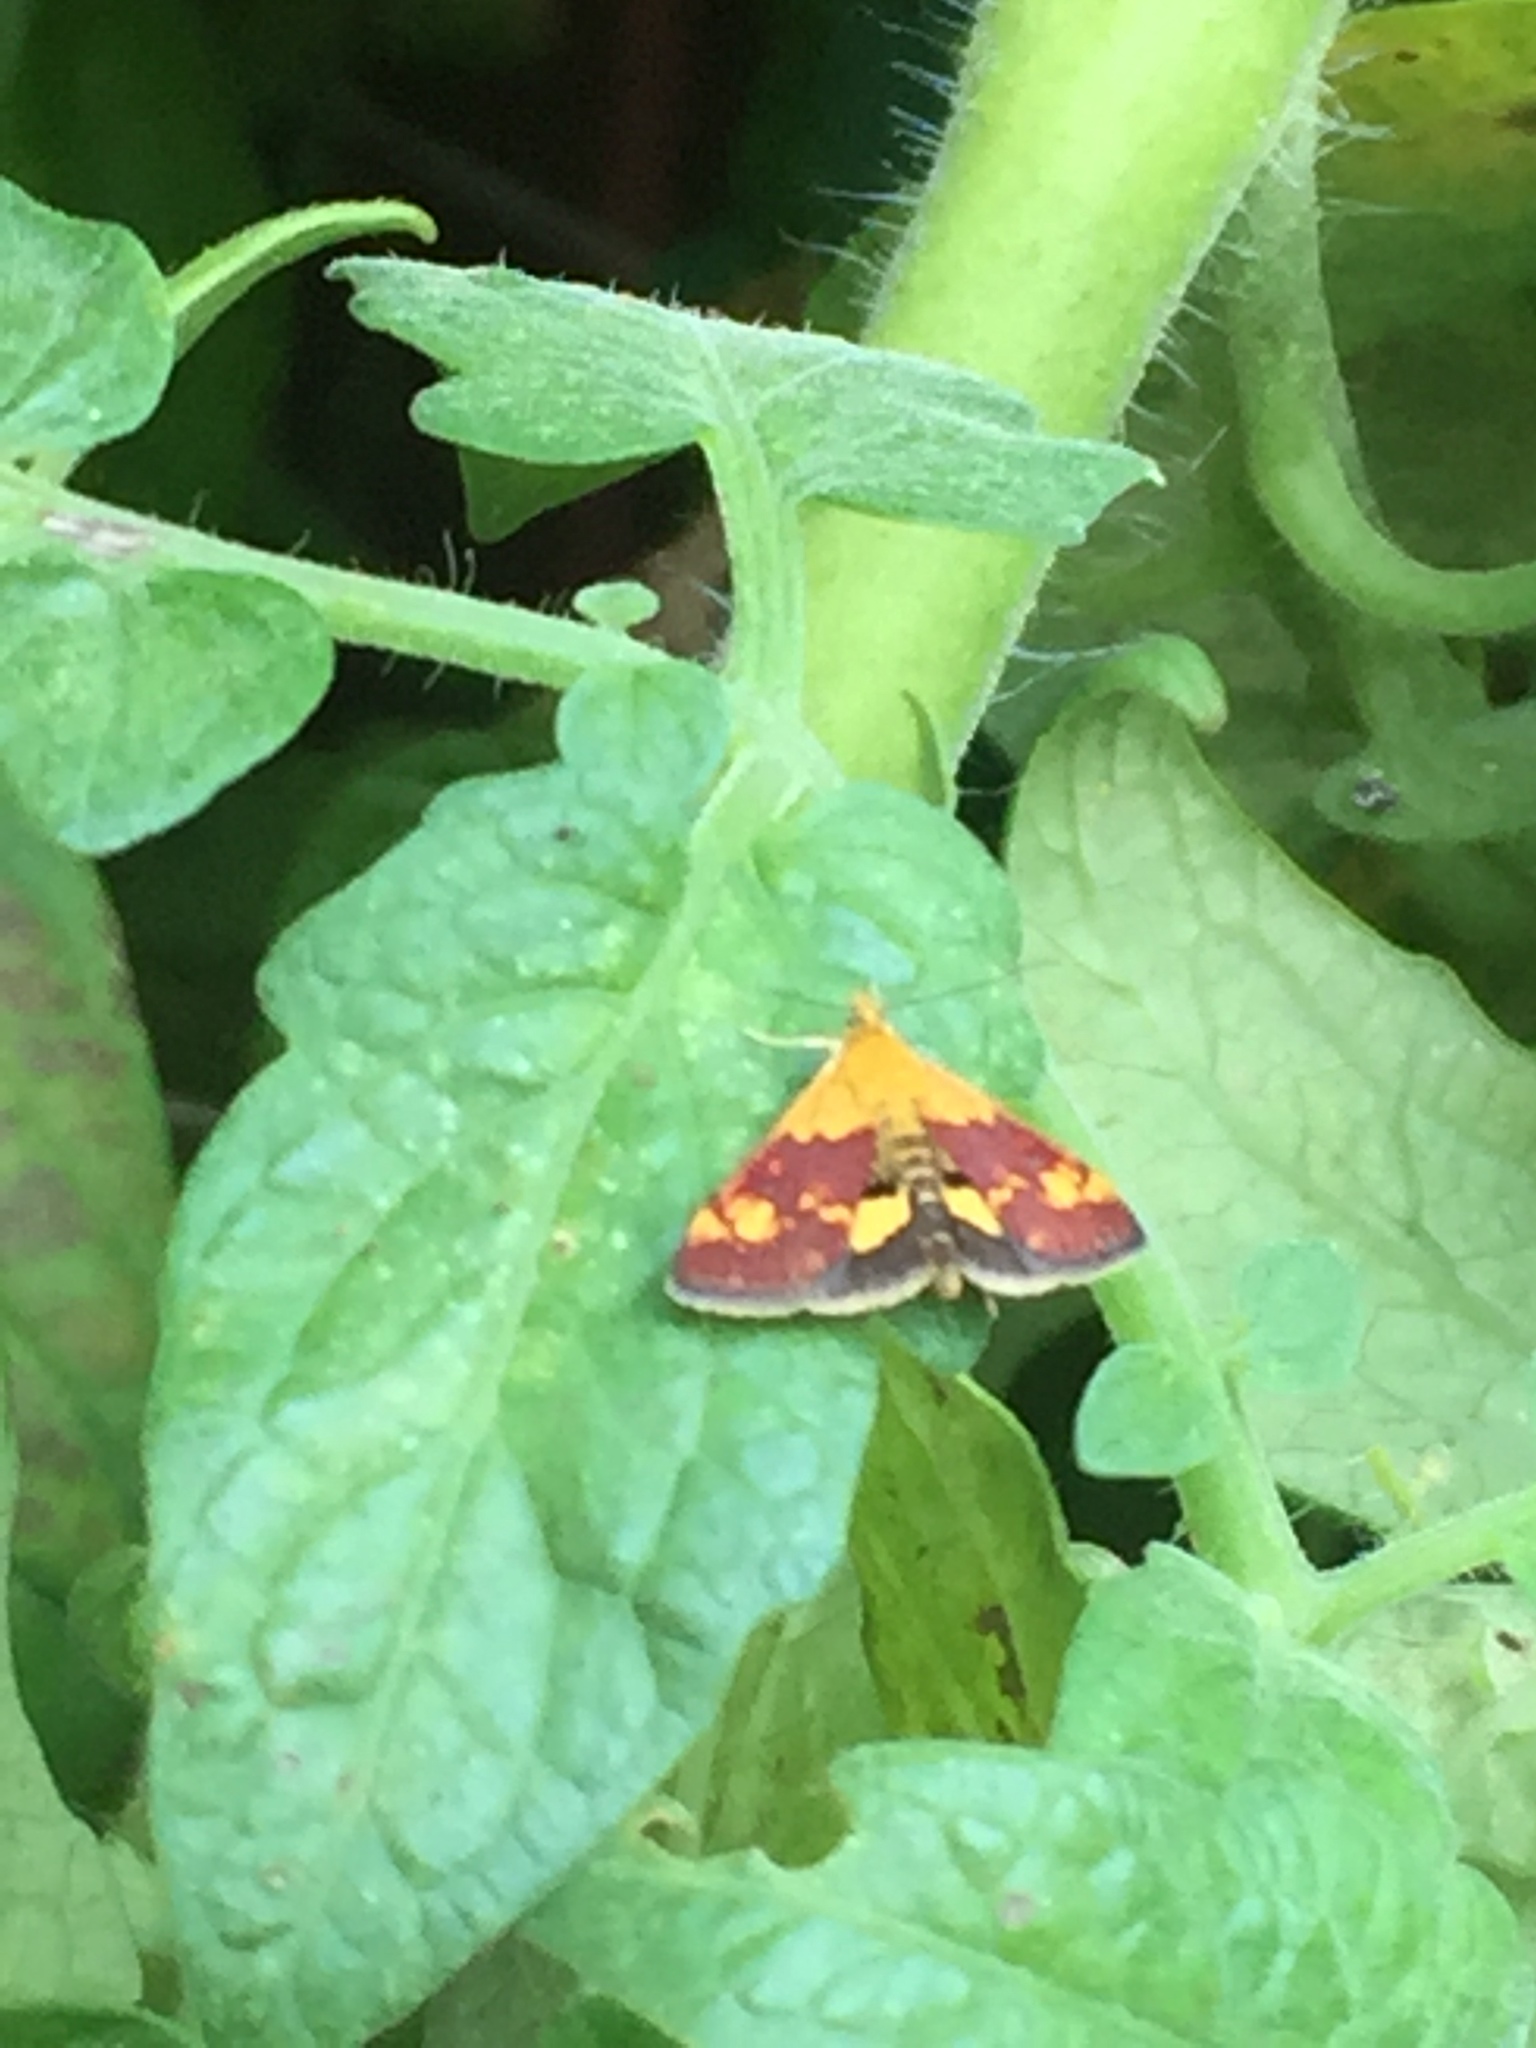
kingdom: Animalia
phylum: Arthropoda
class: Insecta
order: Lepidoptera
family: Crambidae
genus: Pyrausta
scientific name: Pyrausta orphisalis
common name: Orange mint moth
